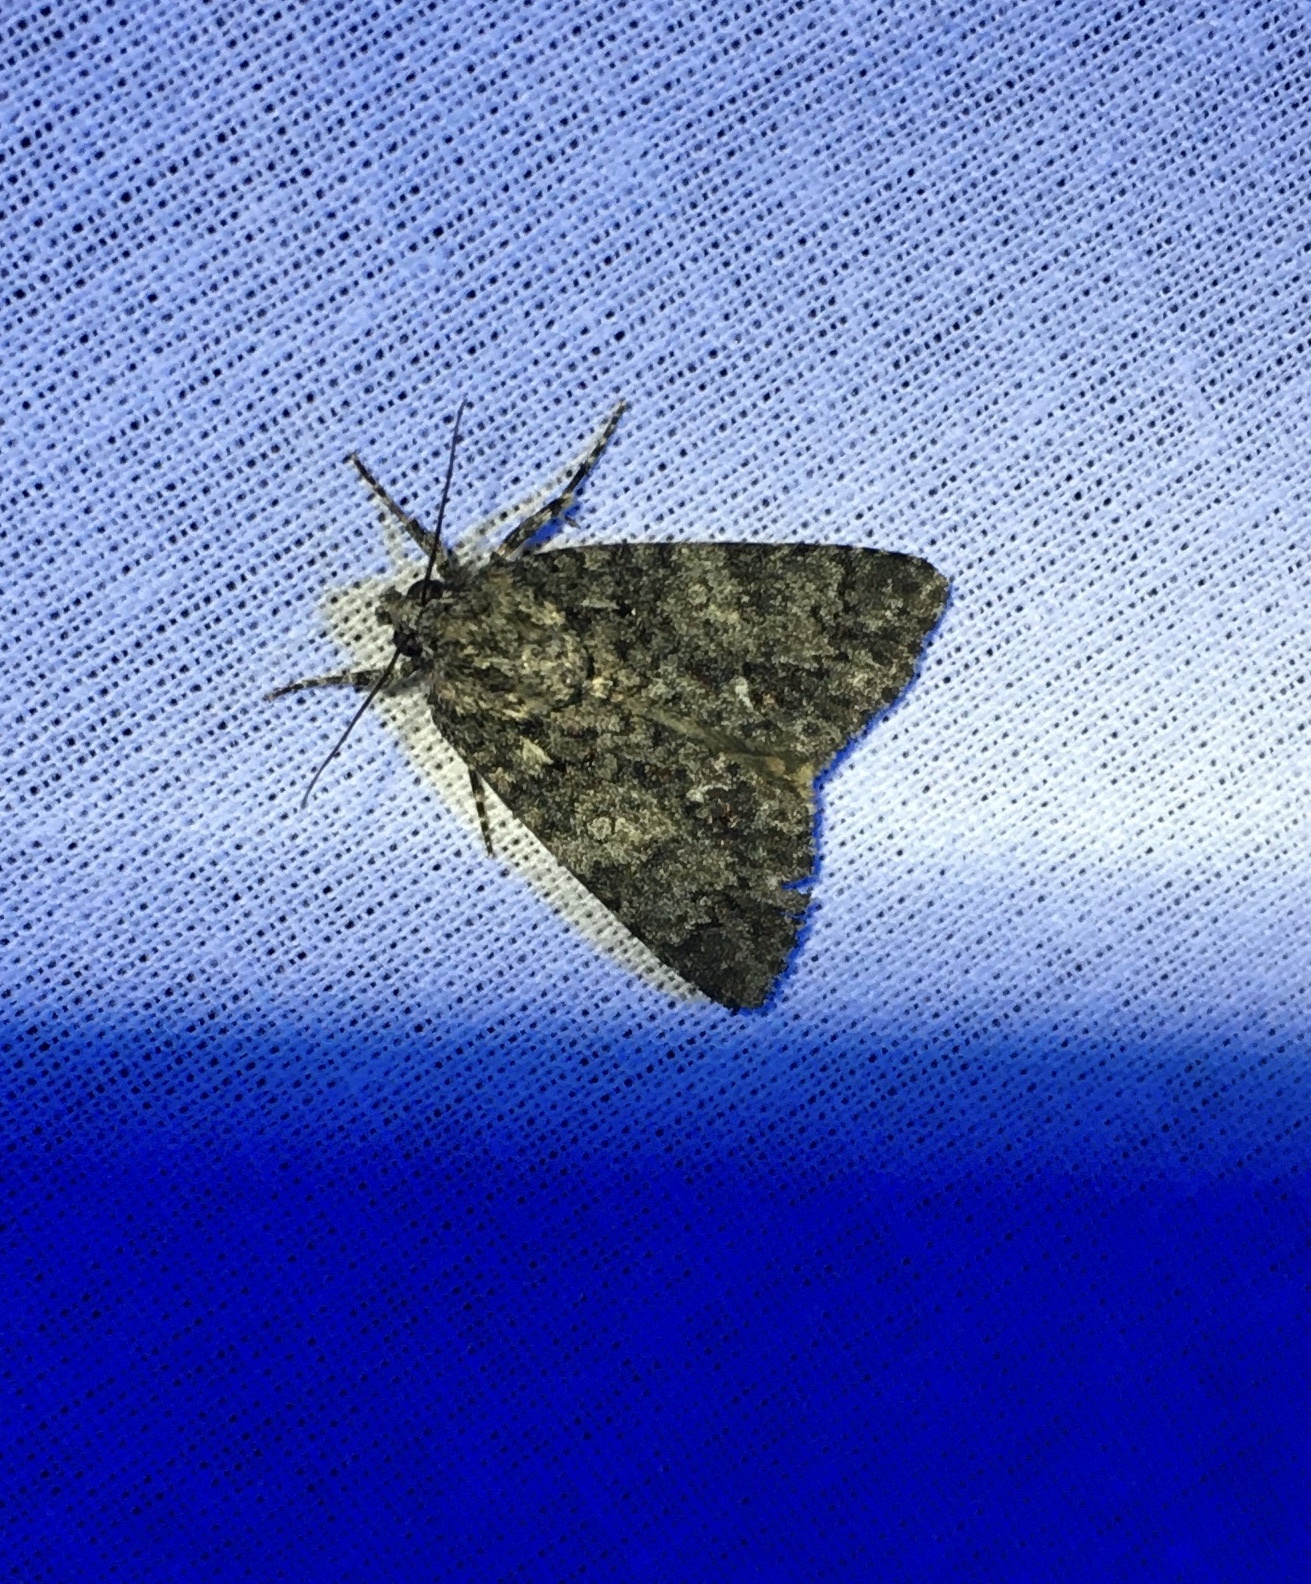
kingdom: Animalia
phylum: Arthropoda
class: Insecta
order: Lepidoptera
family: Noctuidae
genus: Acronicta
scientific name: Acronicta rumicis
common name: Knot grass
